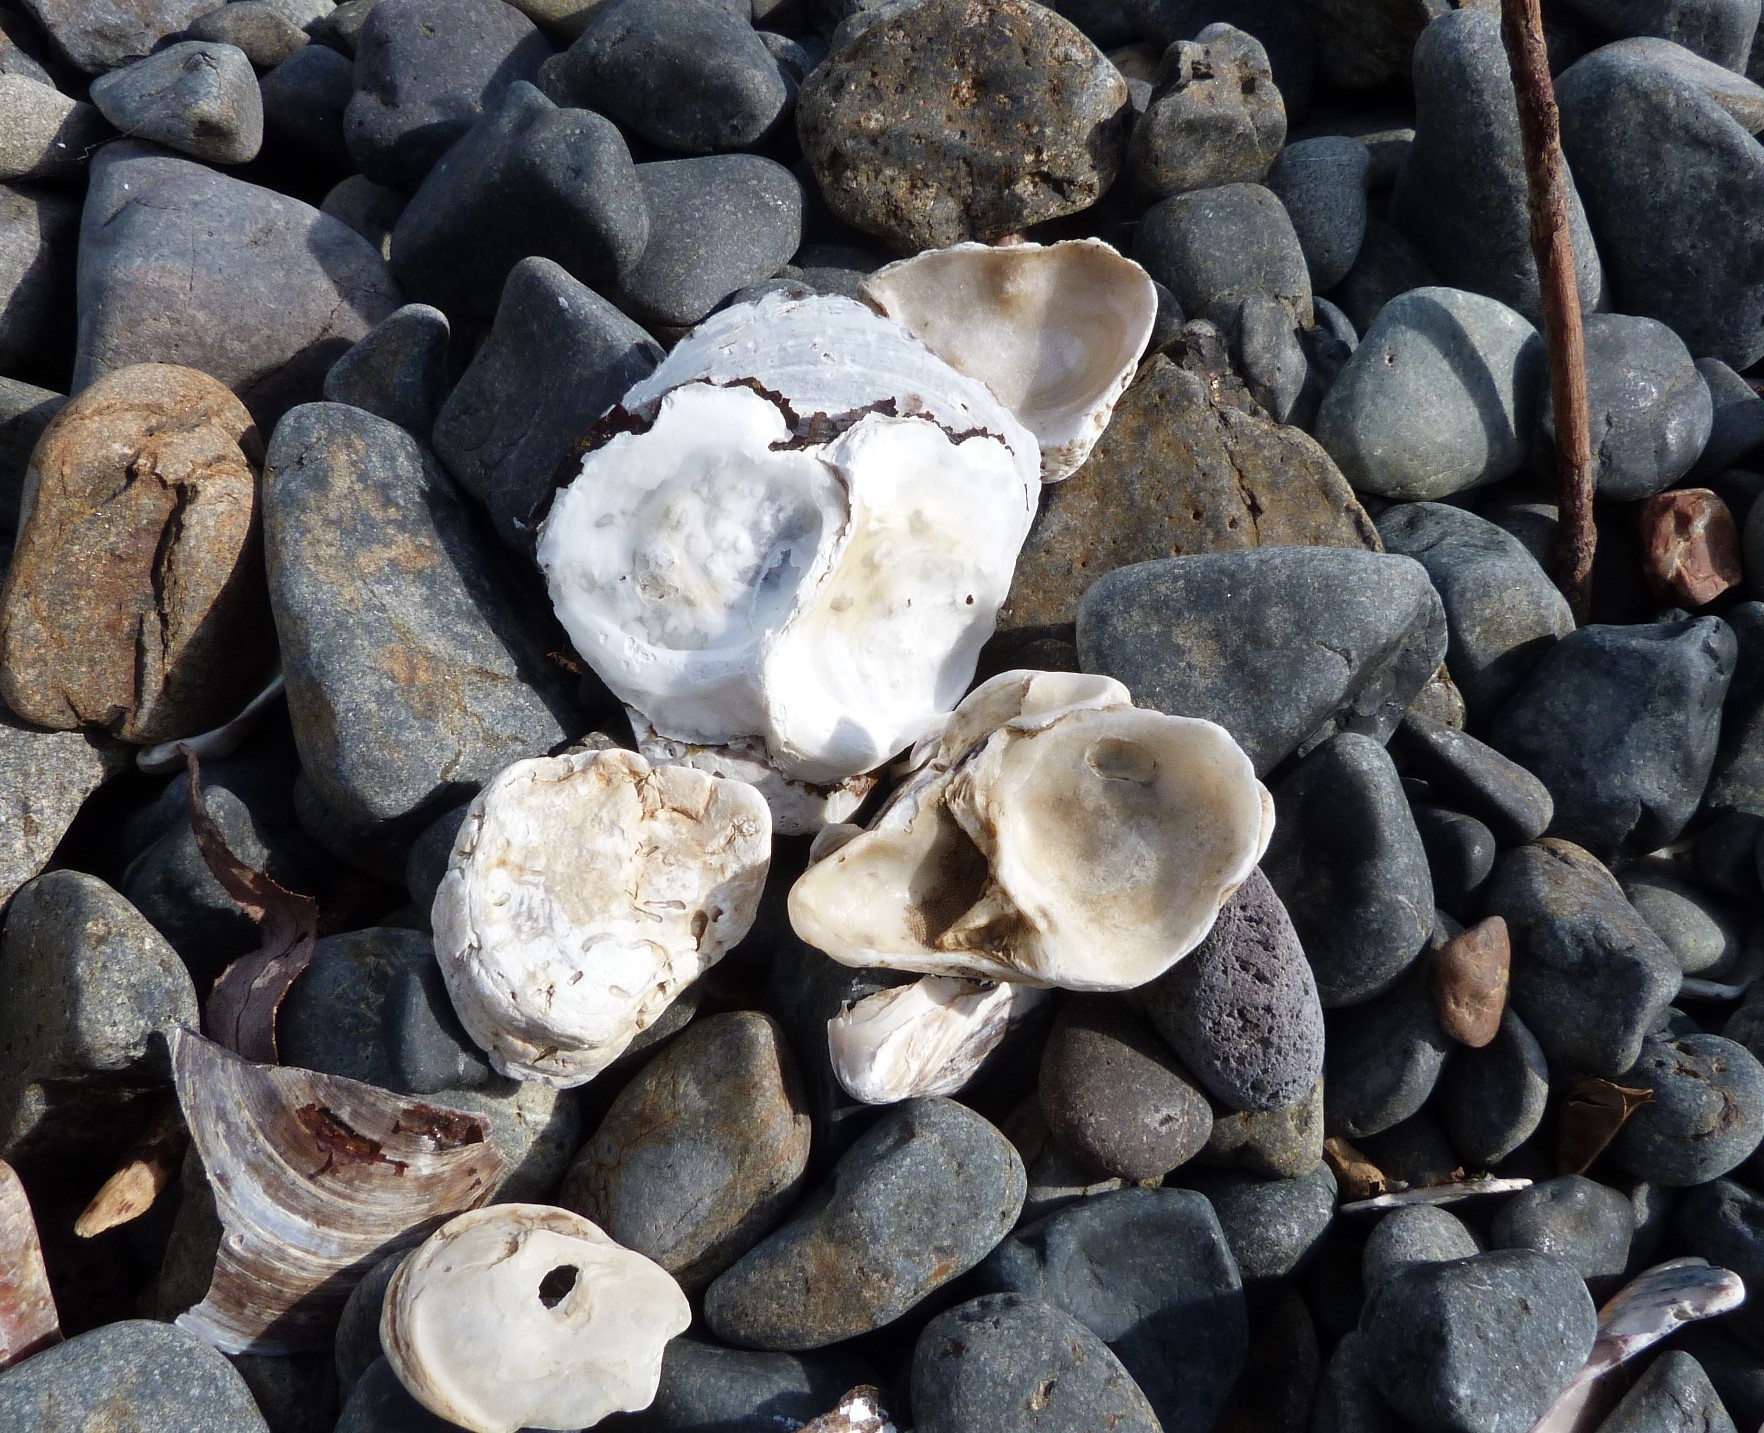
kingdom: Animalia
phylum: Mollusca
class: Bivalvia
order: Ostreida
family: Ostreidae
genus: Ostrea
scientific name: Ostrea chilensis
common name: Chilean oyster
